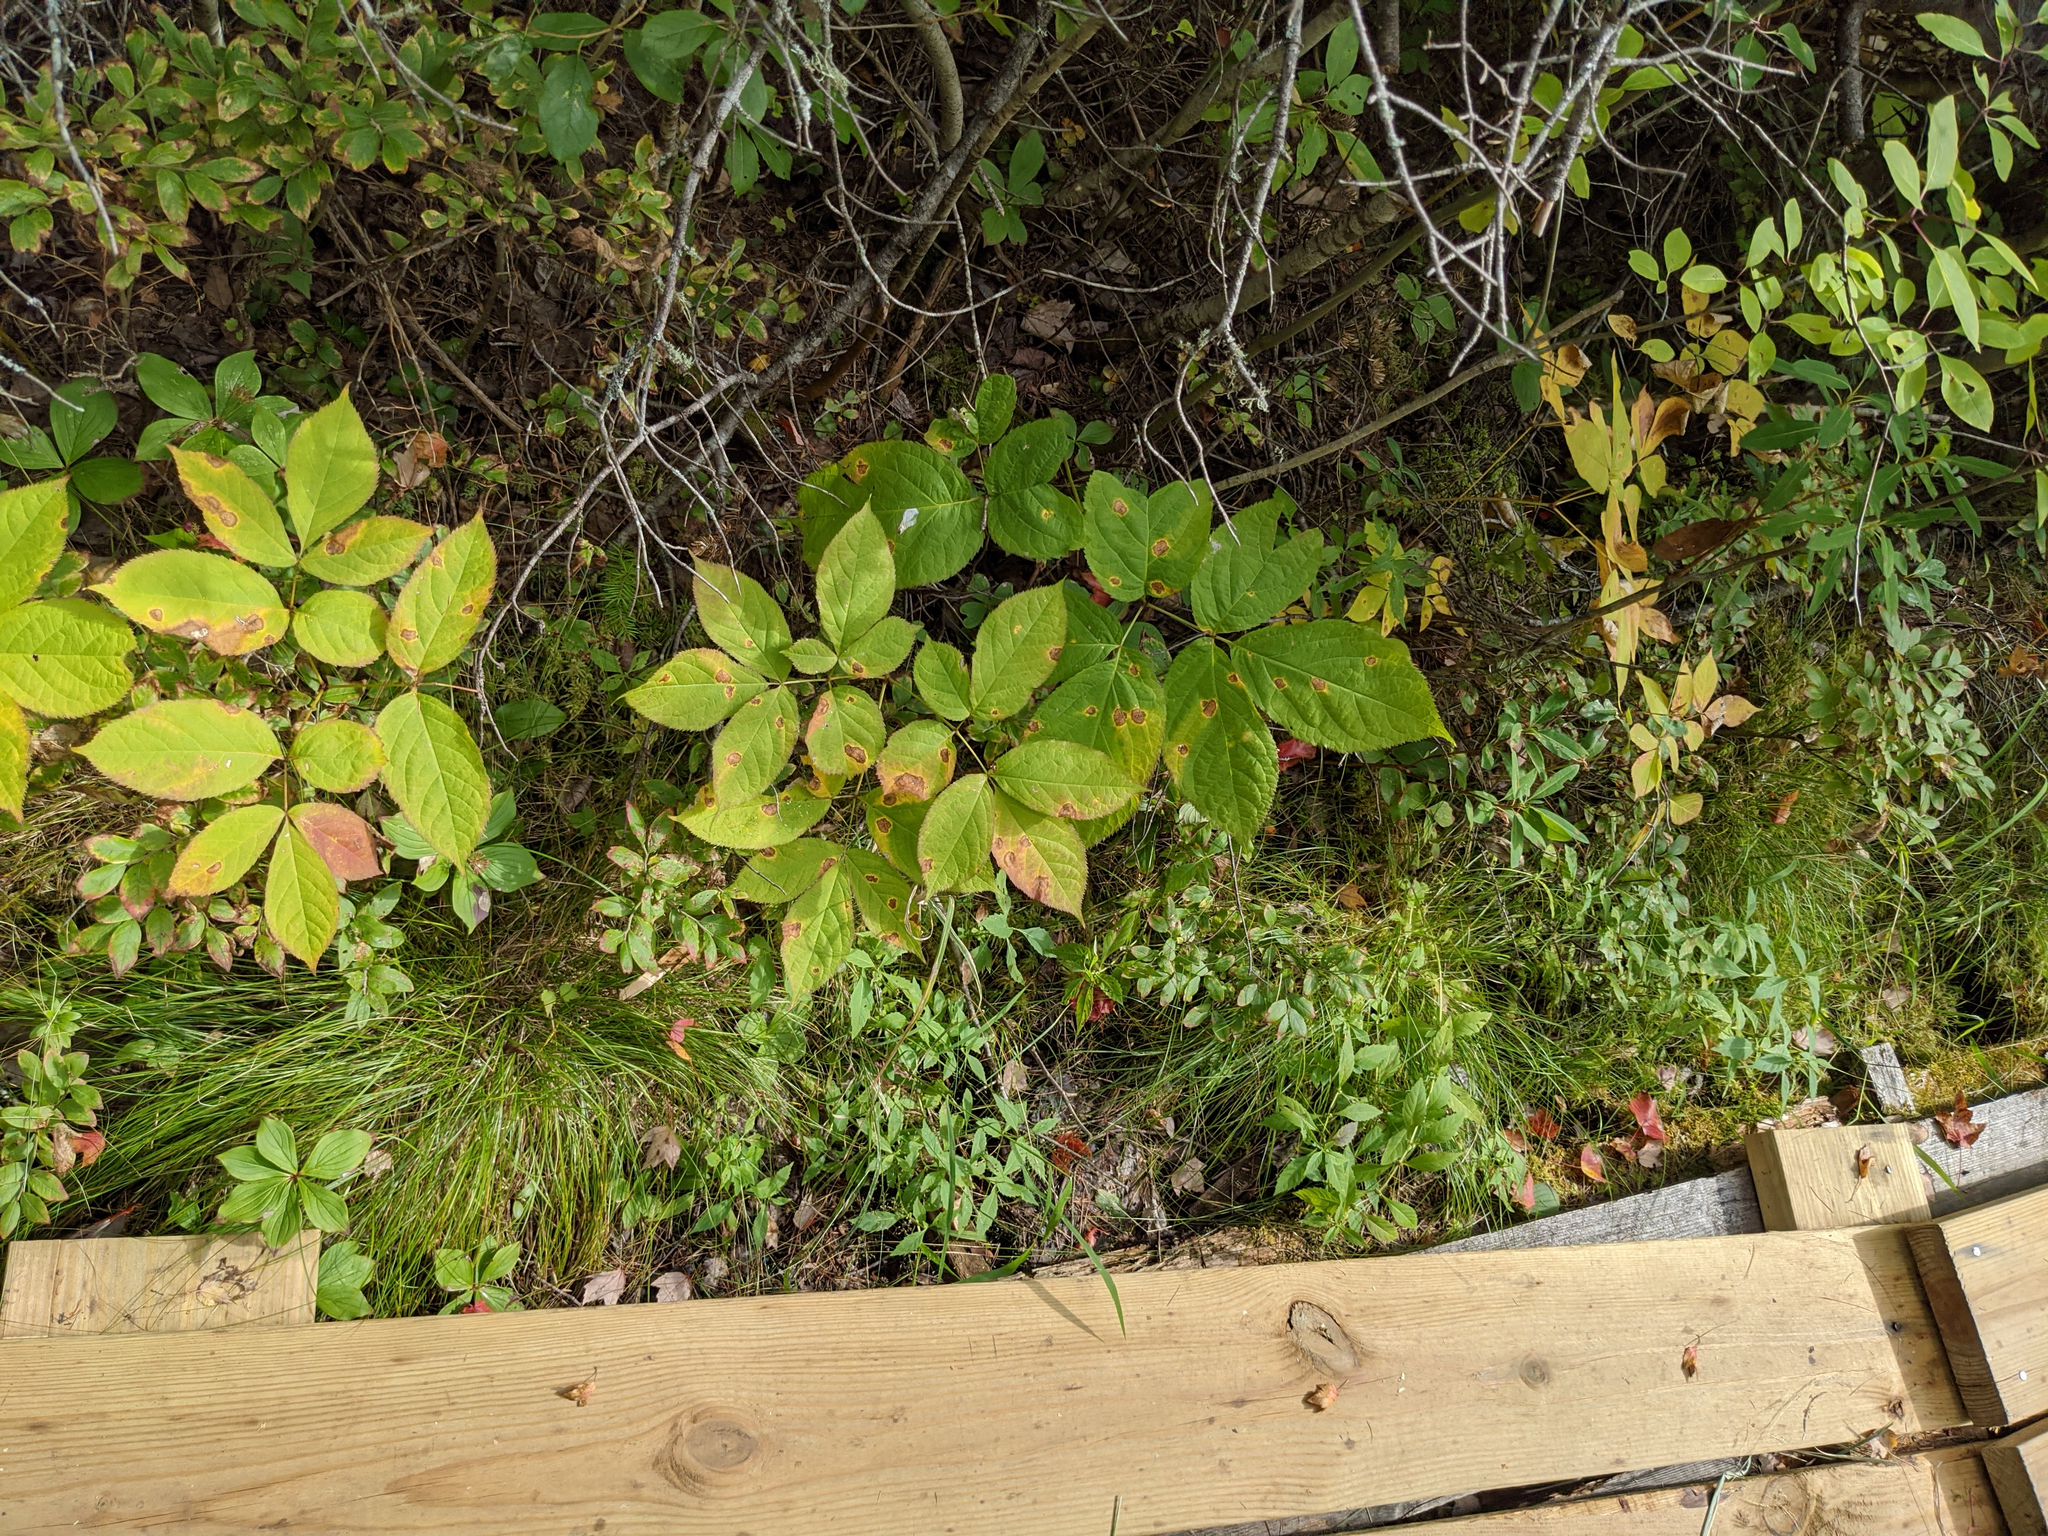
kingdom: Plantae
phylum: Tracheophyta
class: Magnoliopsida
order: Apiales
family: Araliaceae
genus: Aralia
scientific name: Aralia nudicaulis
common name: Wild sarsaparilla
